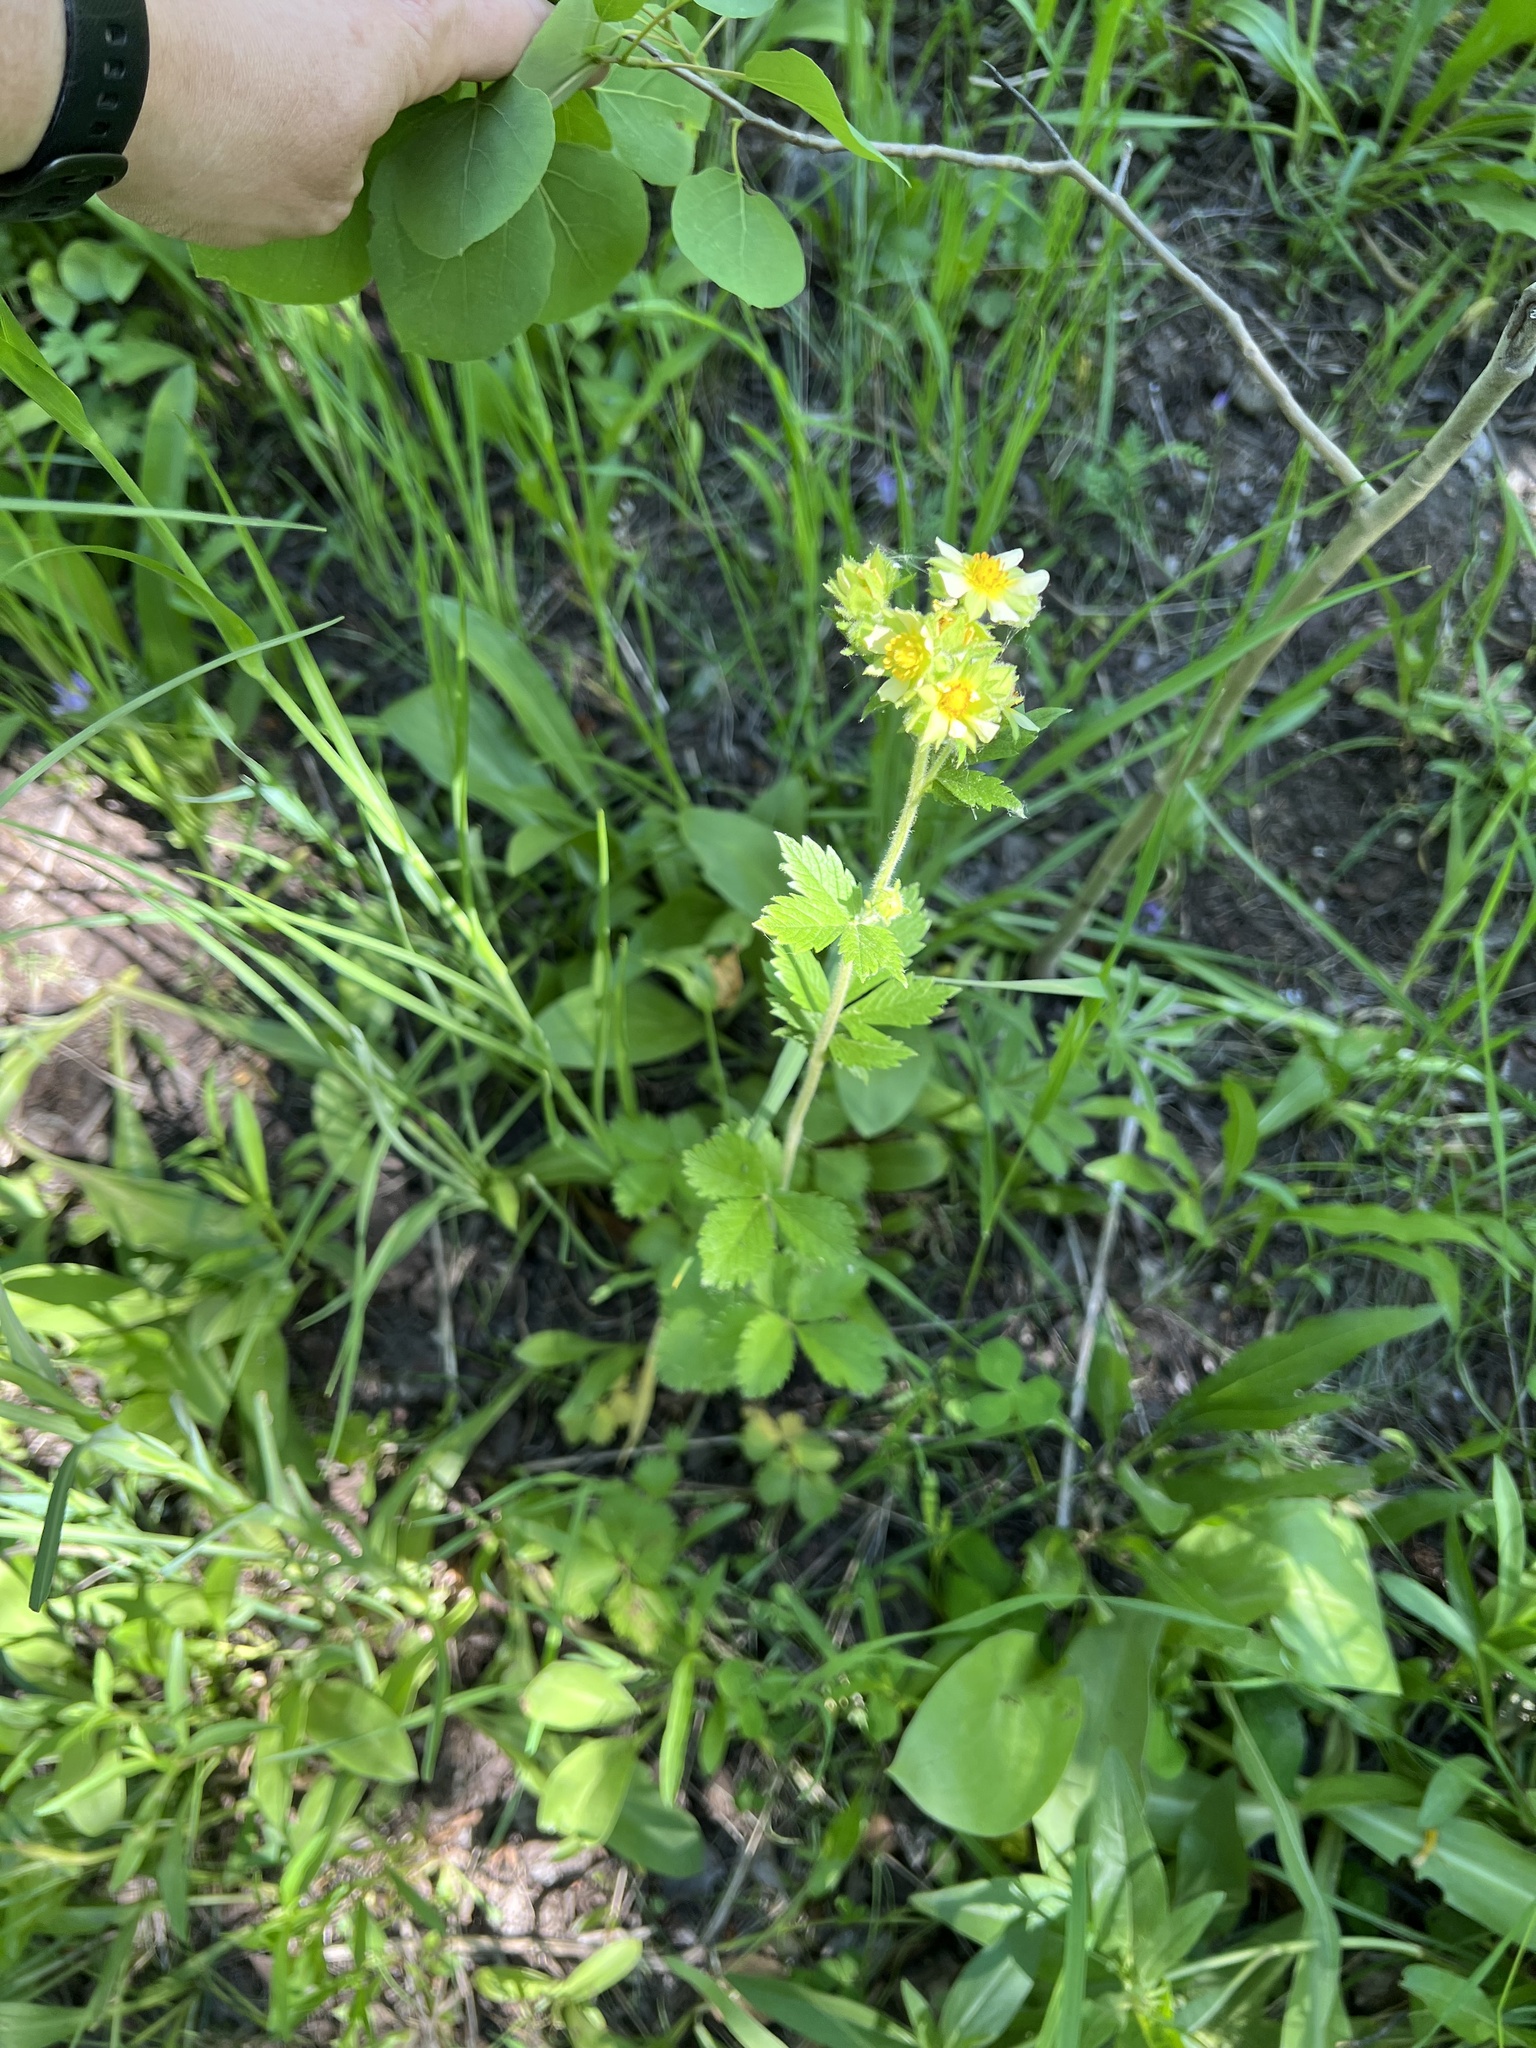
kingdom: Plantae
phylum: Tracheophyta
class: Magnoliopsida
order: Rosales
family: Rosaceae
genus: Drymocallis
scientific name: Drymocallis arguta
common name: Tall cinquefoil
